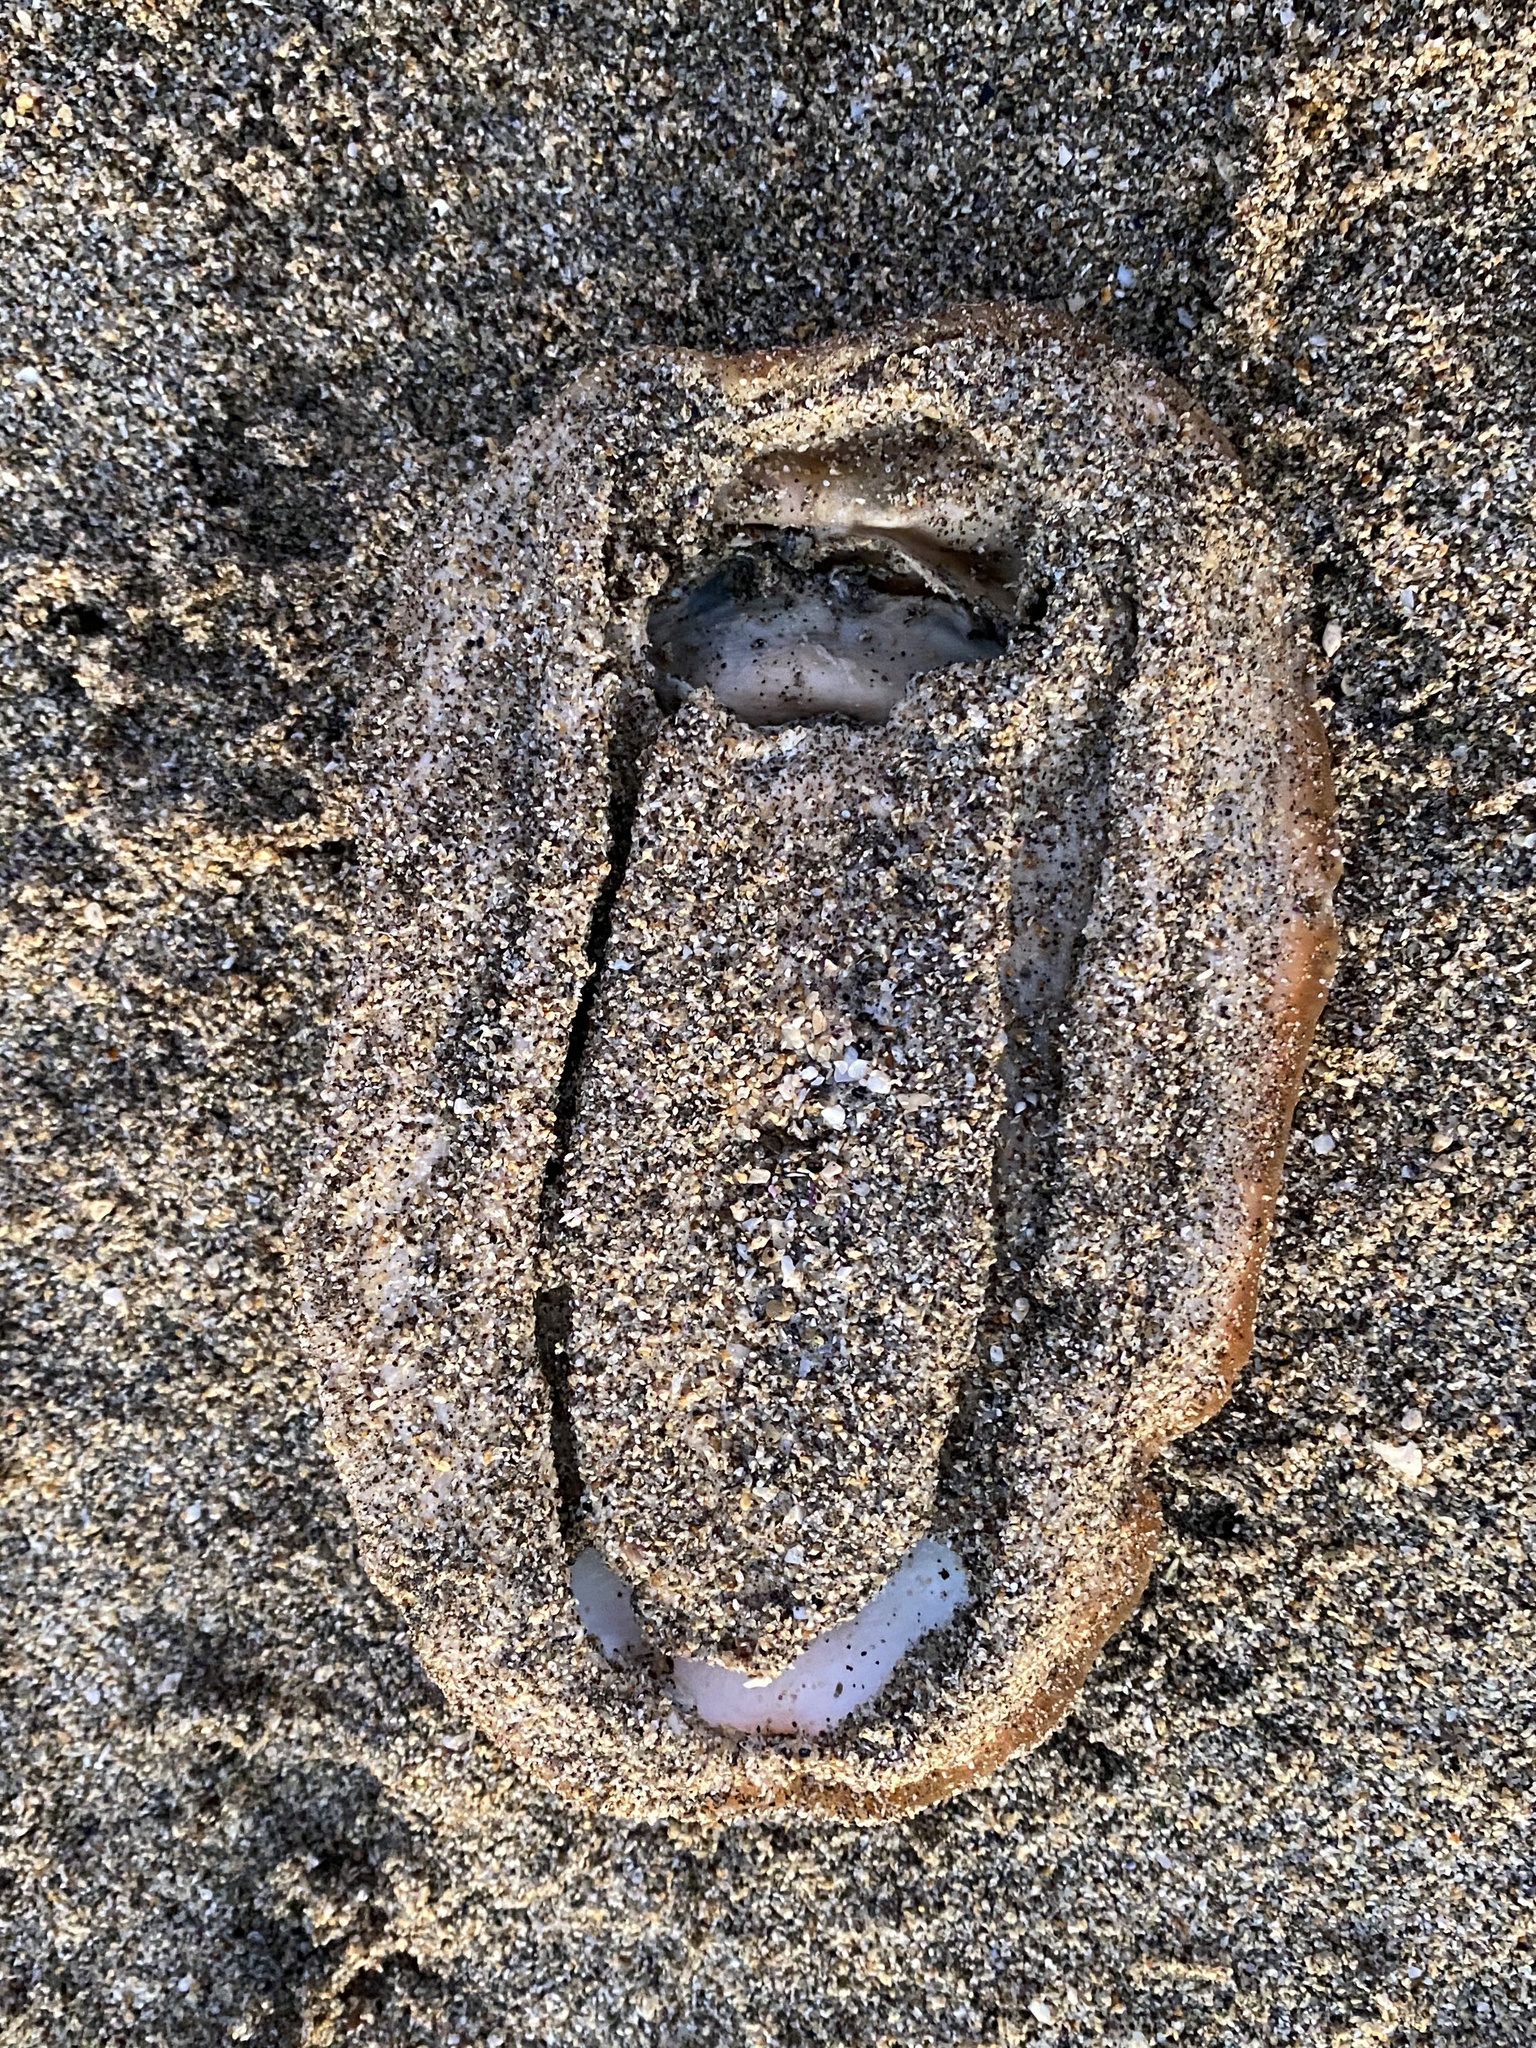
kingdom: Animalia
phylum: Mollusca
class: Polyplacophora
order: Chitonida
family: Acanthochitonidae
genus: Cryptochiton
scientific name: Cryptochiton stelleri
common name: Giant pacific chiton
